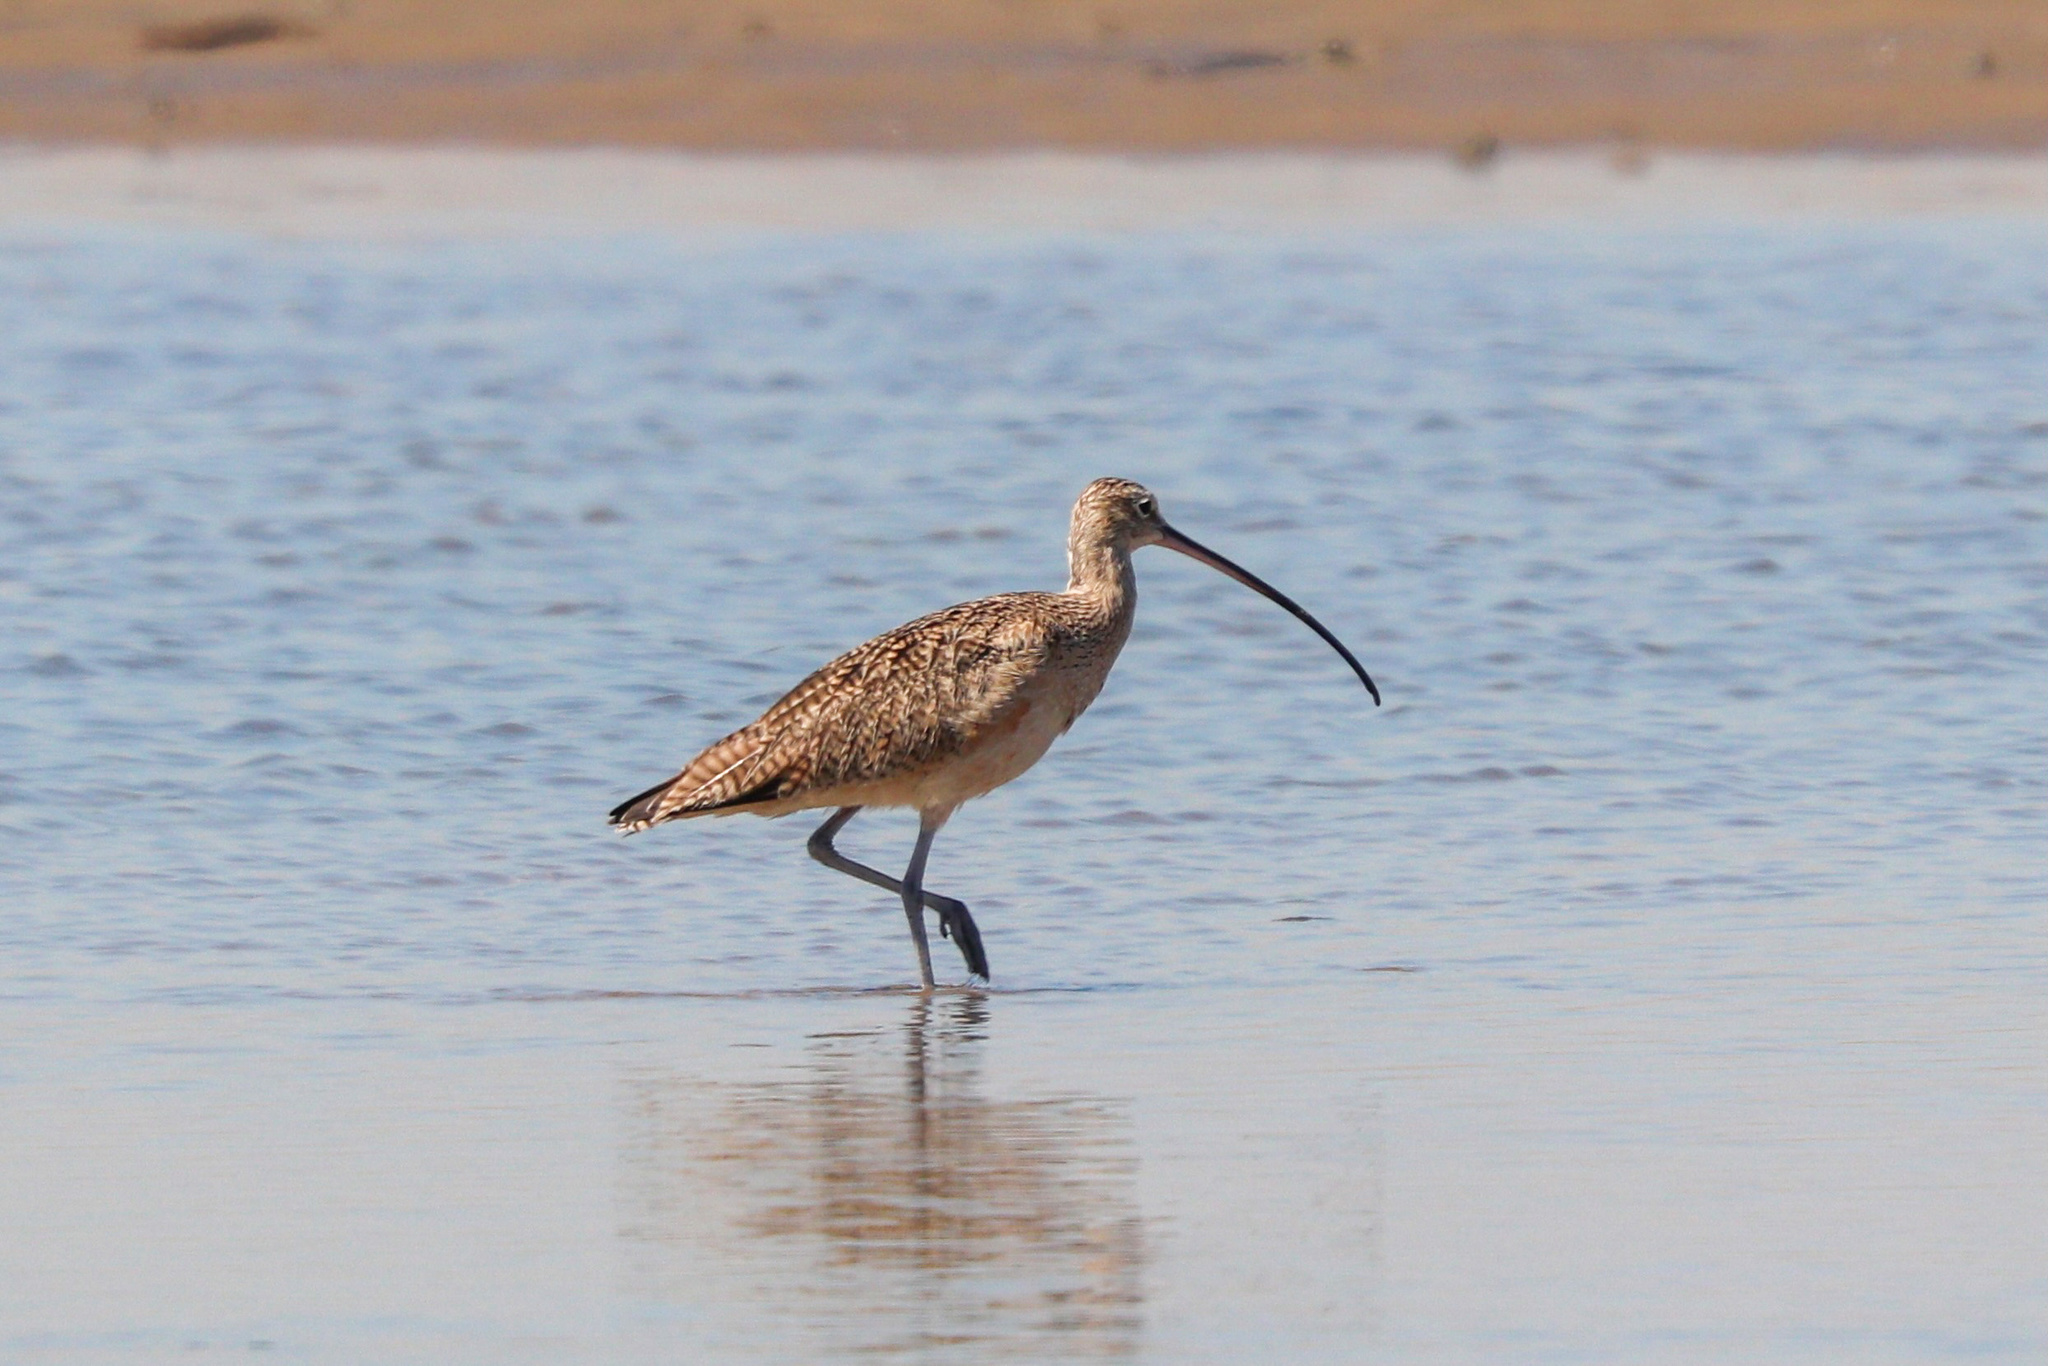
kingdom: Animalia
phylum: Chordata
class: Aves
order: Charadriiformes
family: Scolopacidae
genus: Numenius
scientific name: Numenius americanus
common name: Long-billed curlew
